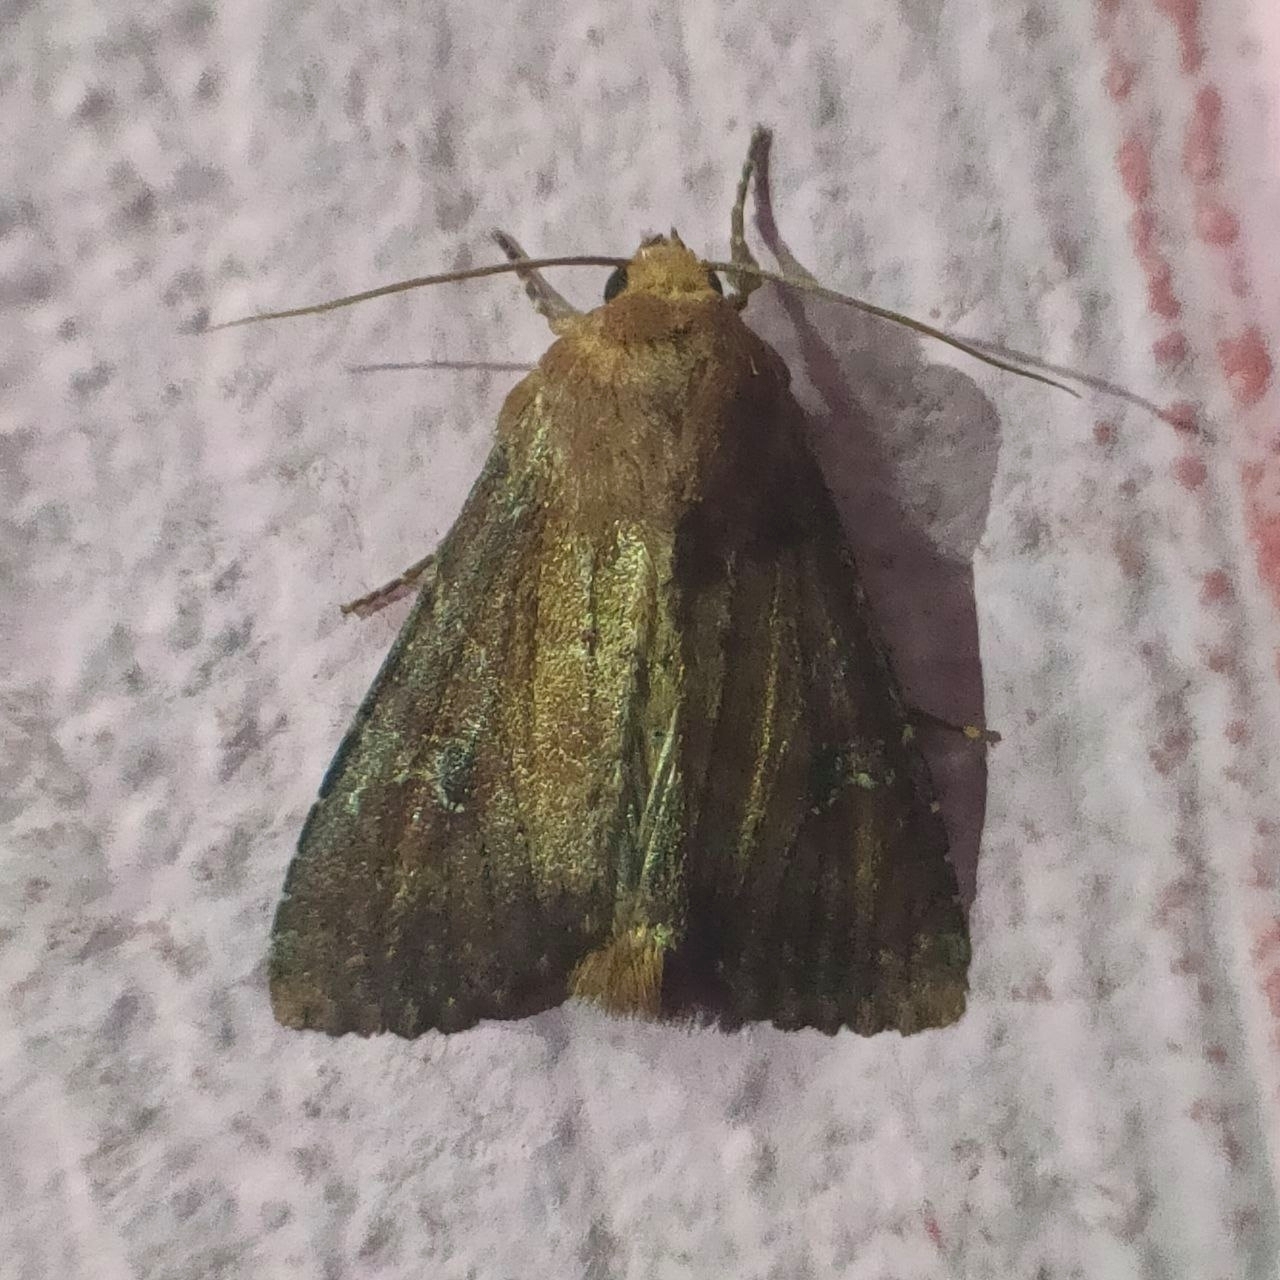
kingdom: Animalia
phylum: Arthropoda
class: Insecta
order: Lepidoptera
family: Noctuidae
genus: Apamea
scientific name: Apamea lateritia
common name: Scarce brindle
